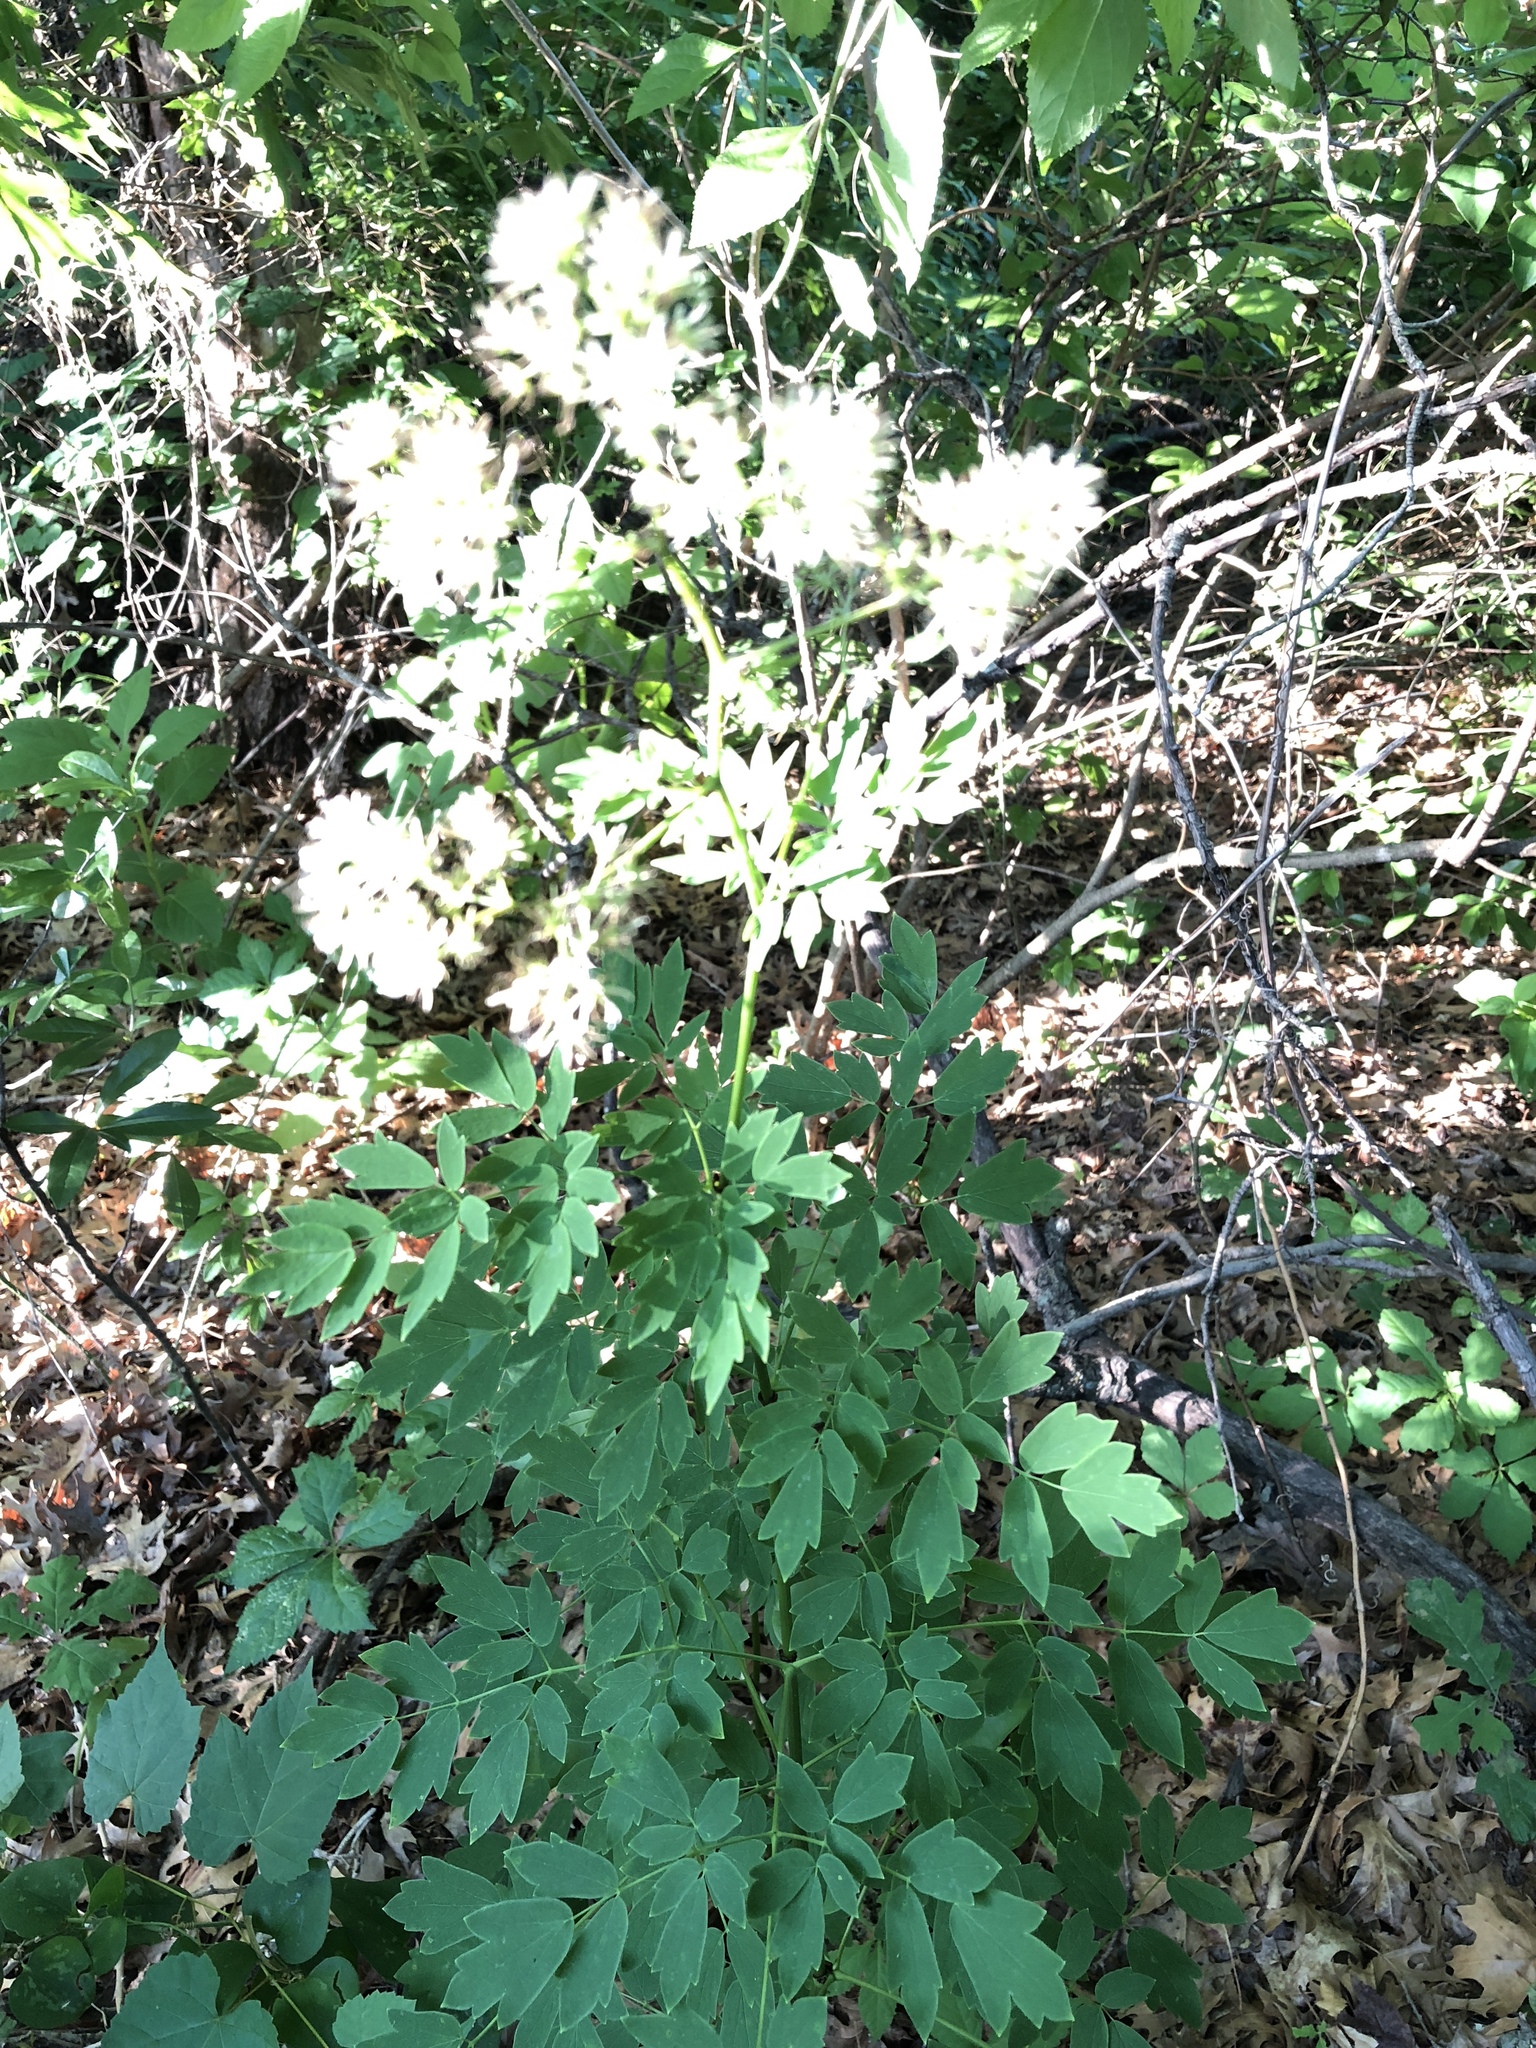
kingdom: Plantae
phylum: Tracheophyta
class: Magnoliopsida
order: Ranunculales
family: Ranunculaceae
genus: Thalictrum
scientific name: Thalictrum dasycarpum
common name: Purple meadow-rue
